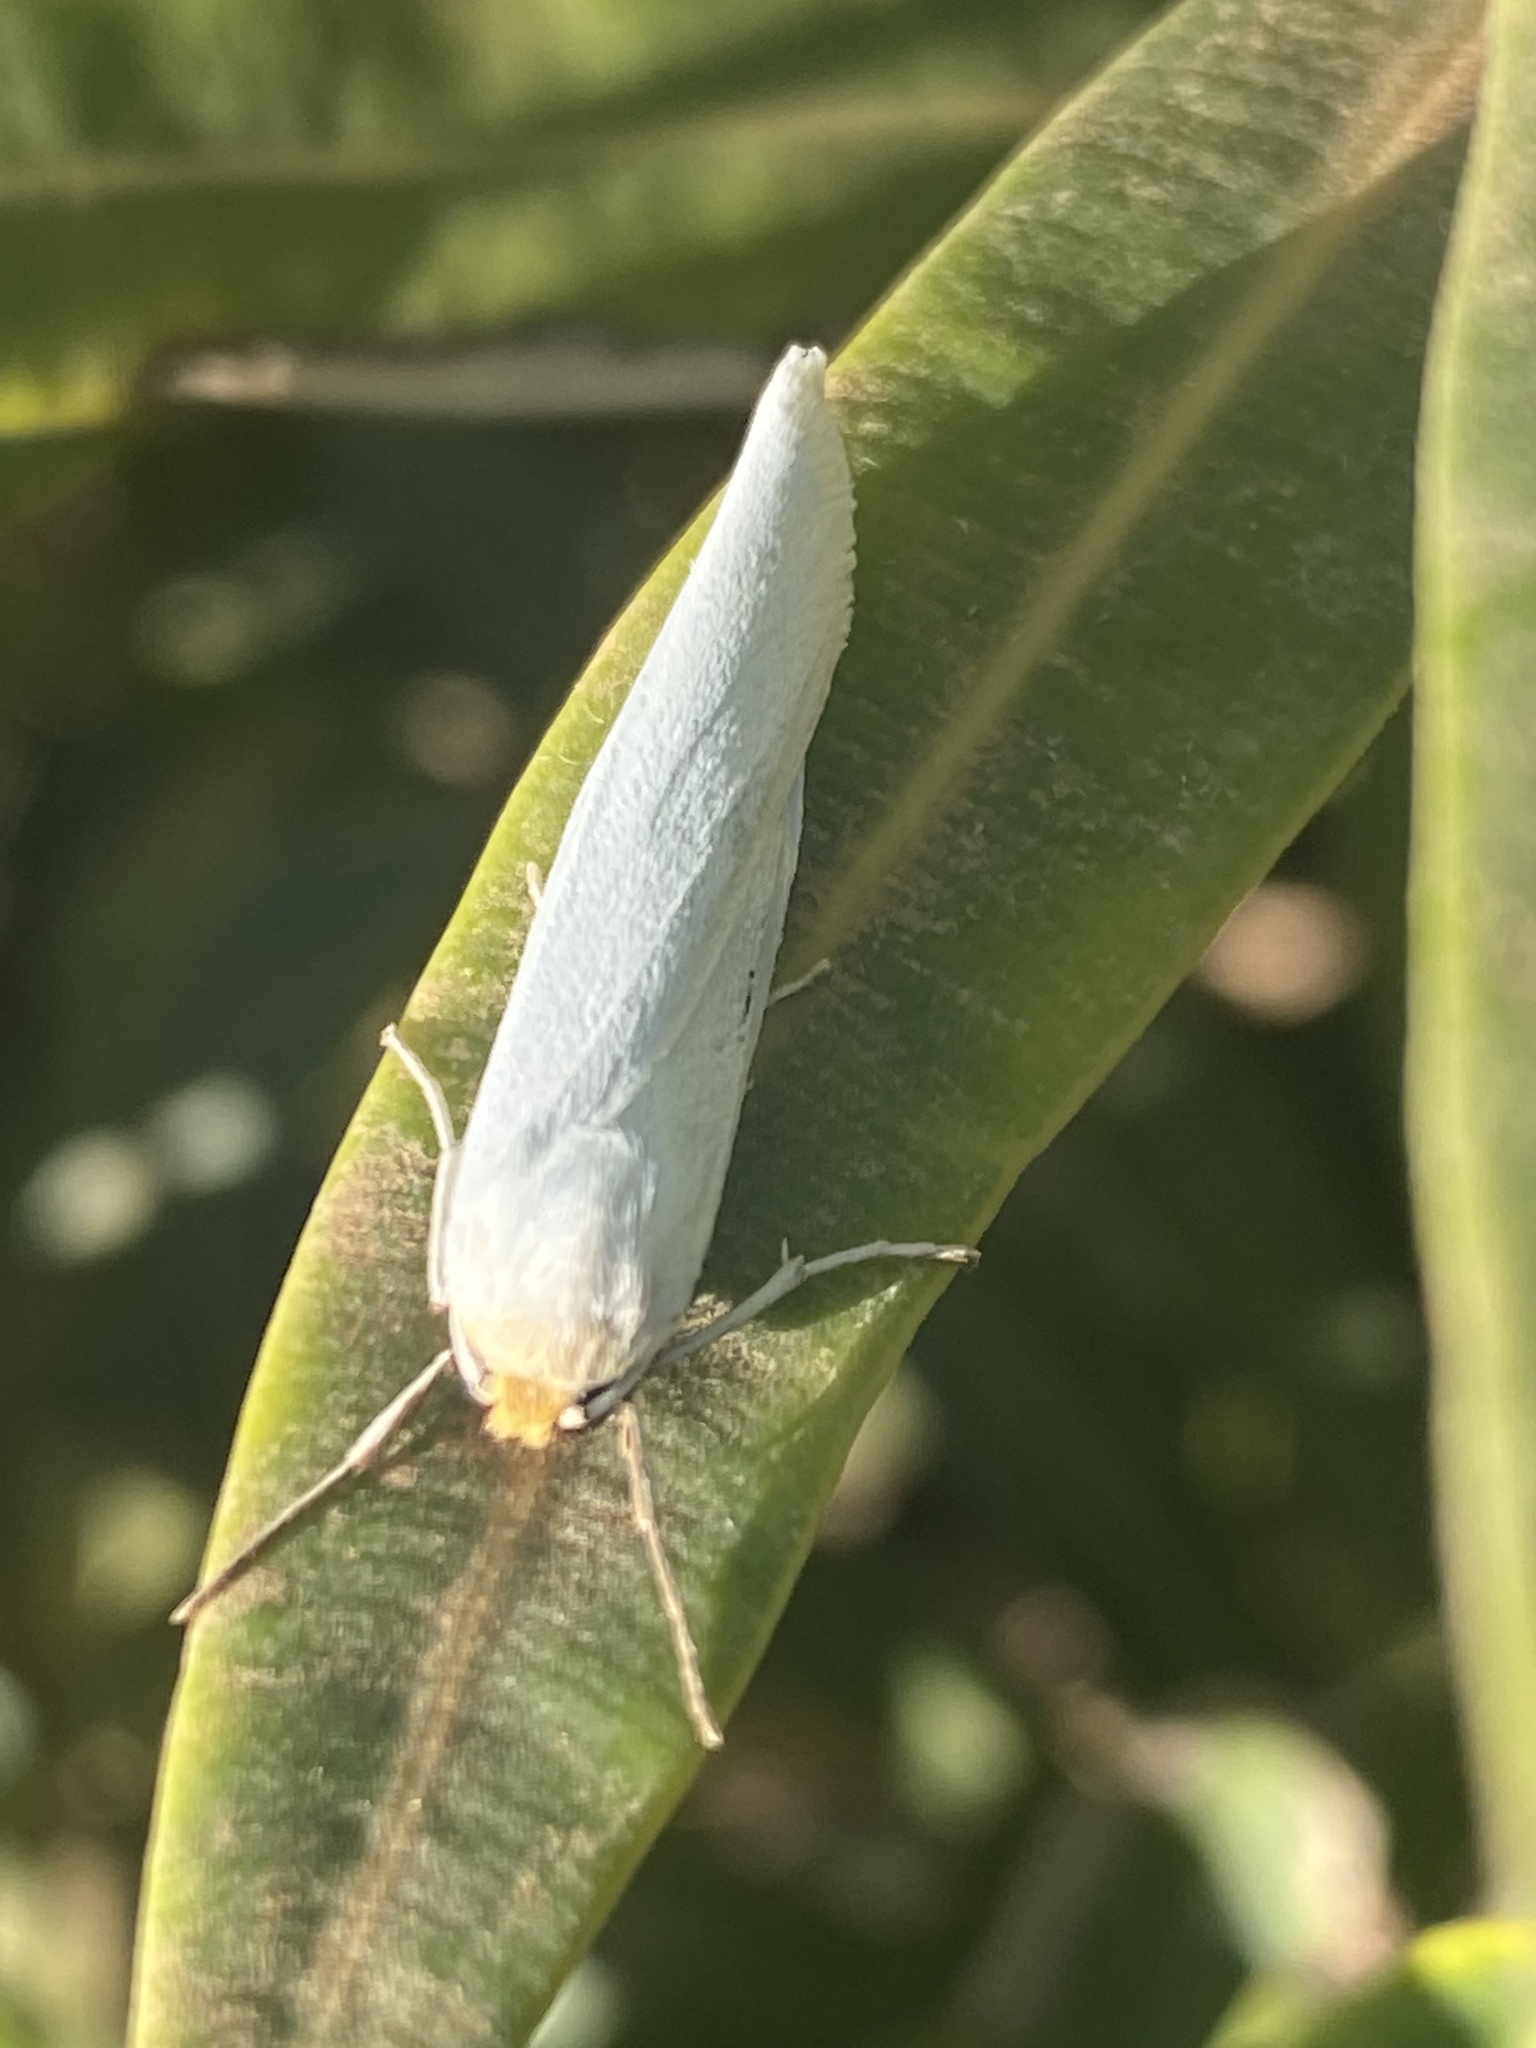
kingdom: Animalia
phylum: Arthropoda
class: Insecta
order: Lepidoptera
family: Erebidae
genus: Coscinia
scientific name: Coscinia cribraria
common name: Speckled footman
